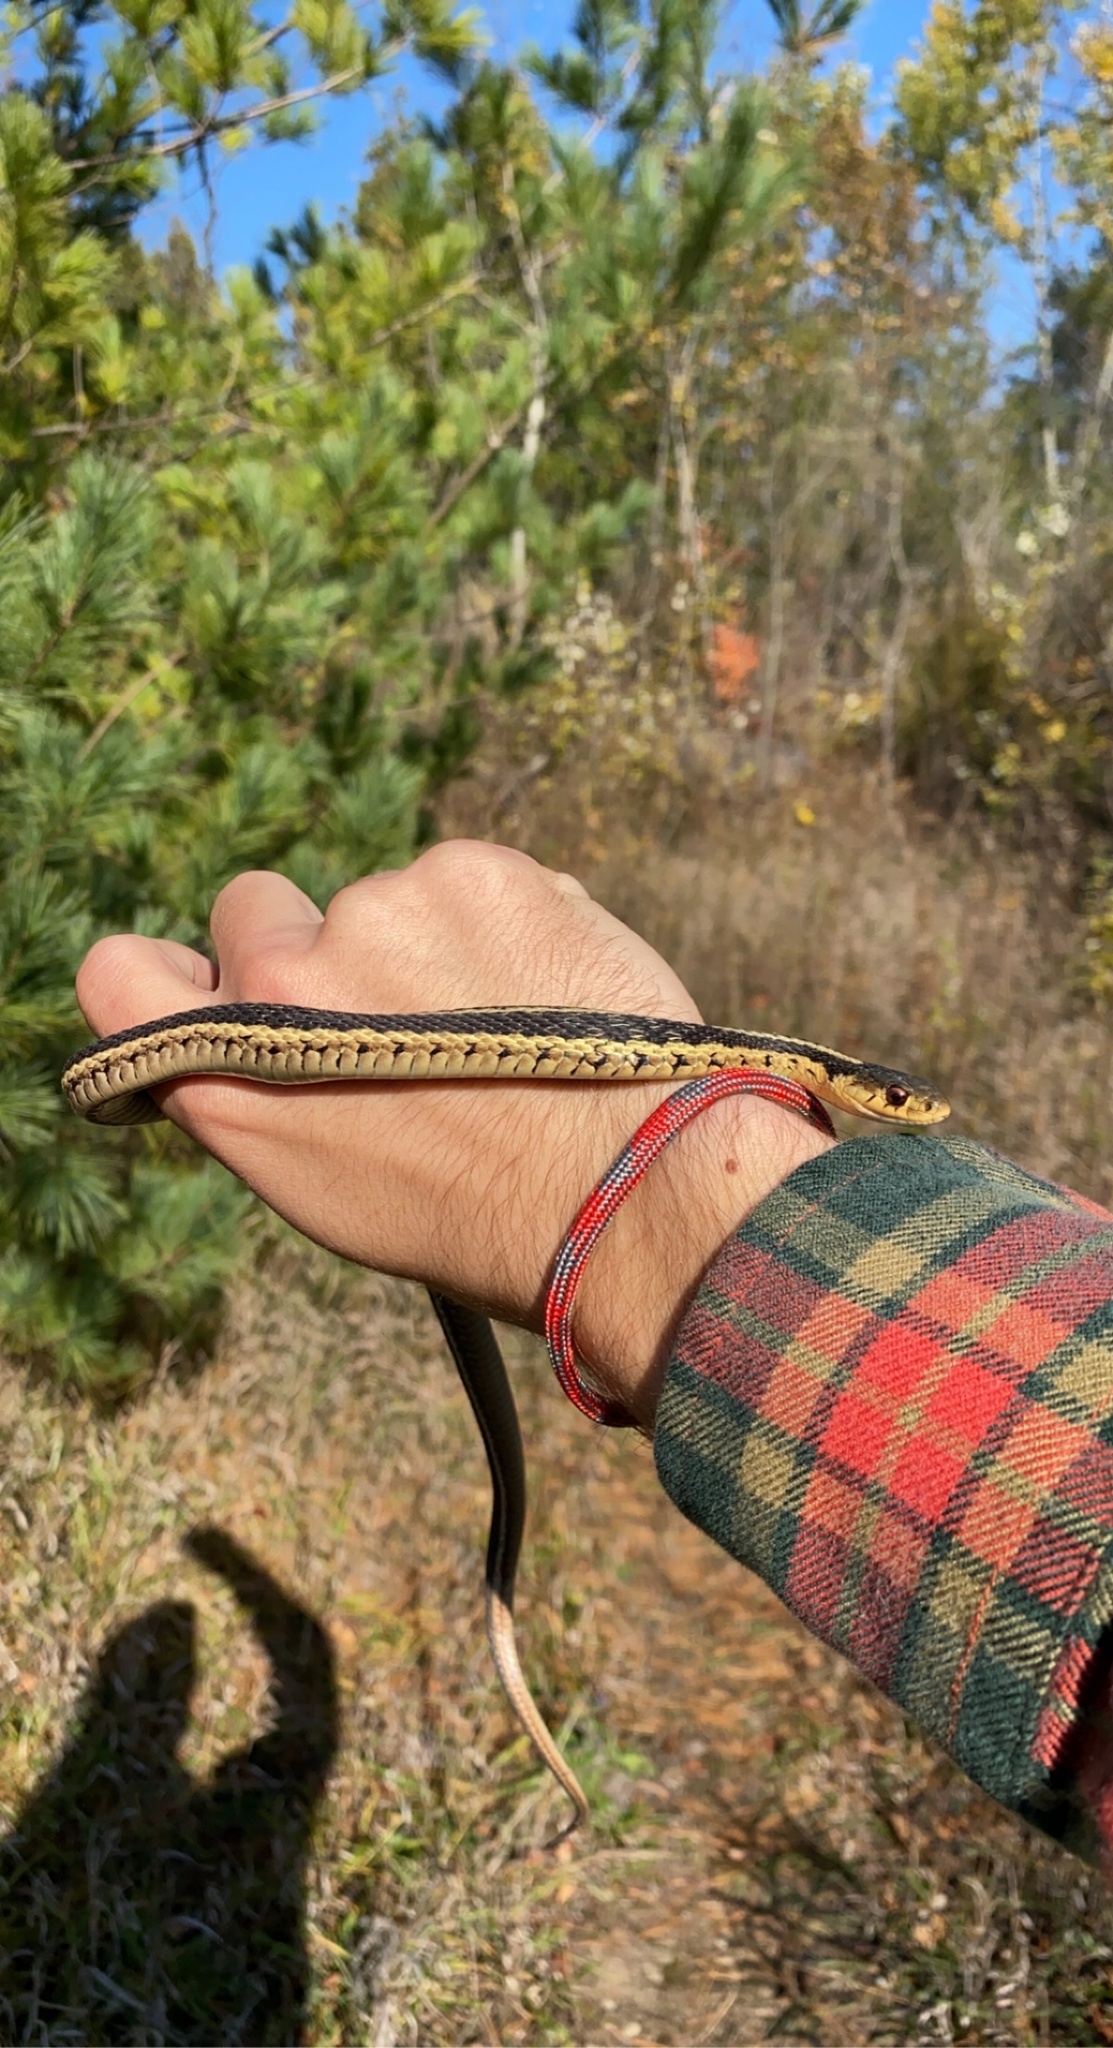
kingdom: Animalia
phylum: Chordata
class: Squamata
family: Colubridae
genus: Thamnophis
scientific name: Thamnophis sirtalis
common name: Common garter snake
